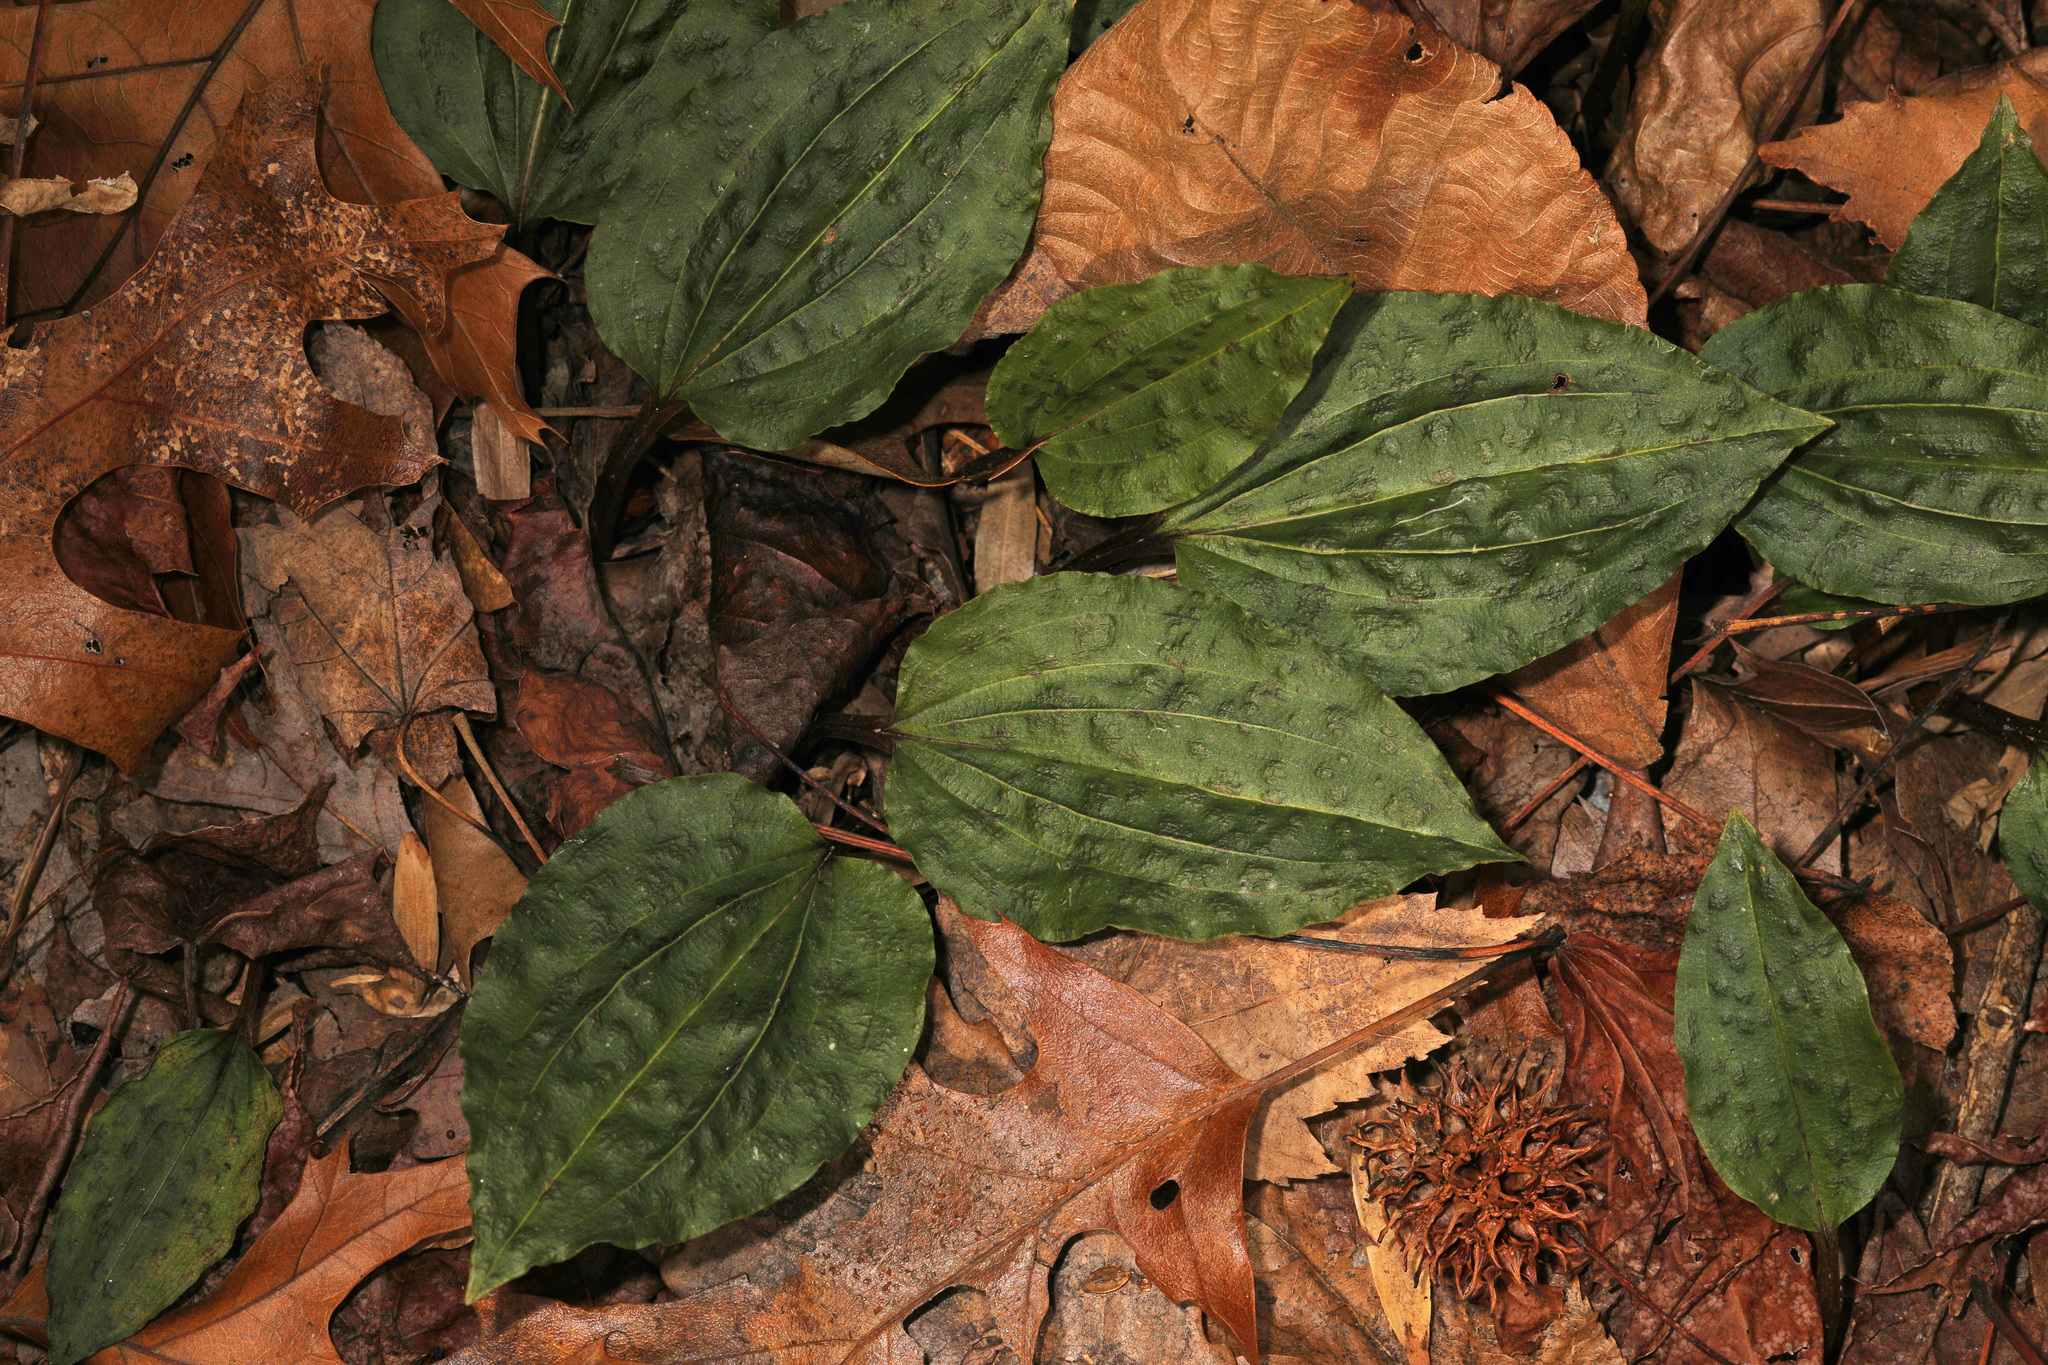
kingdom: Plantae
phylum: Tracheophyta
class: Liliopsida
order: Asparagales
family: Orchidaceae
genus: Tipularia
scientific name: Tipularia discolor
